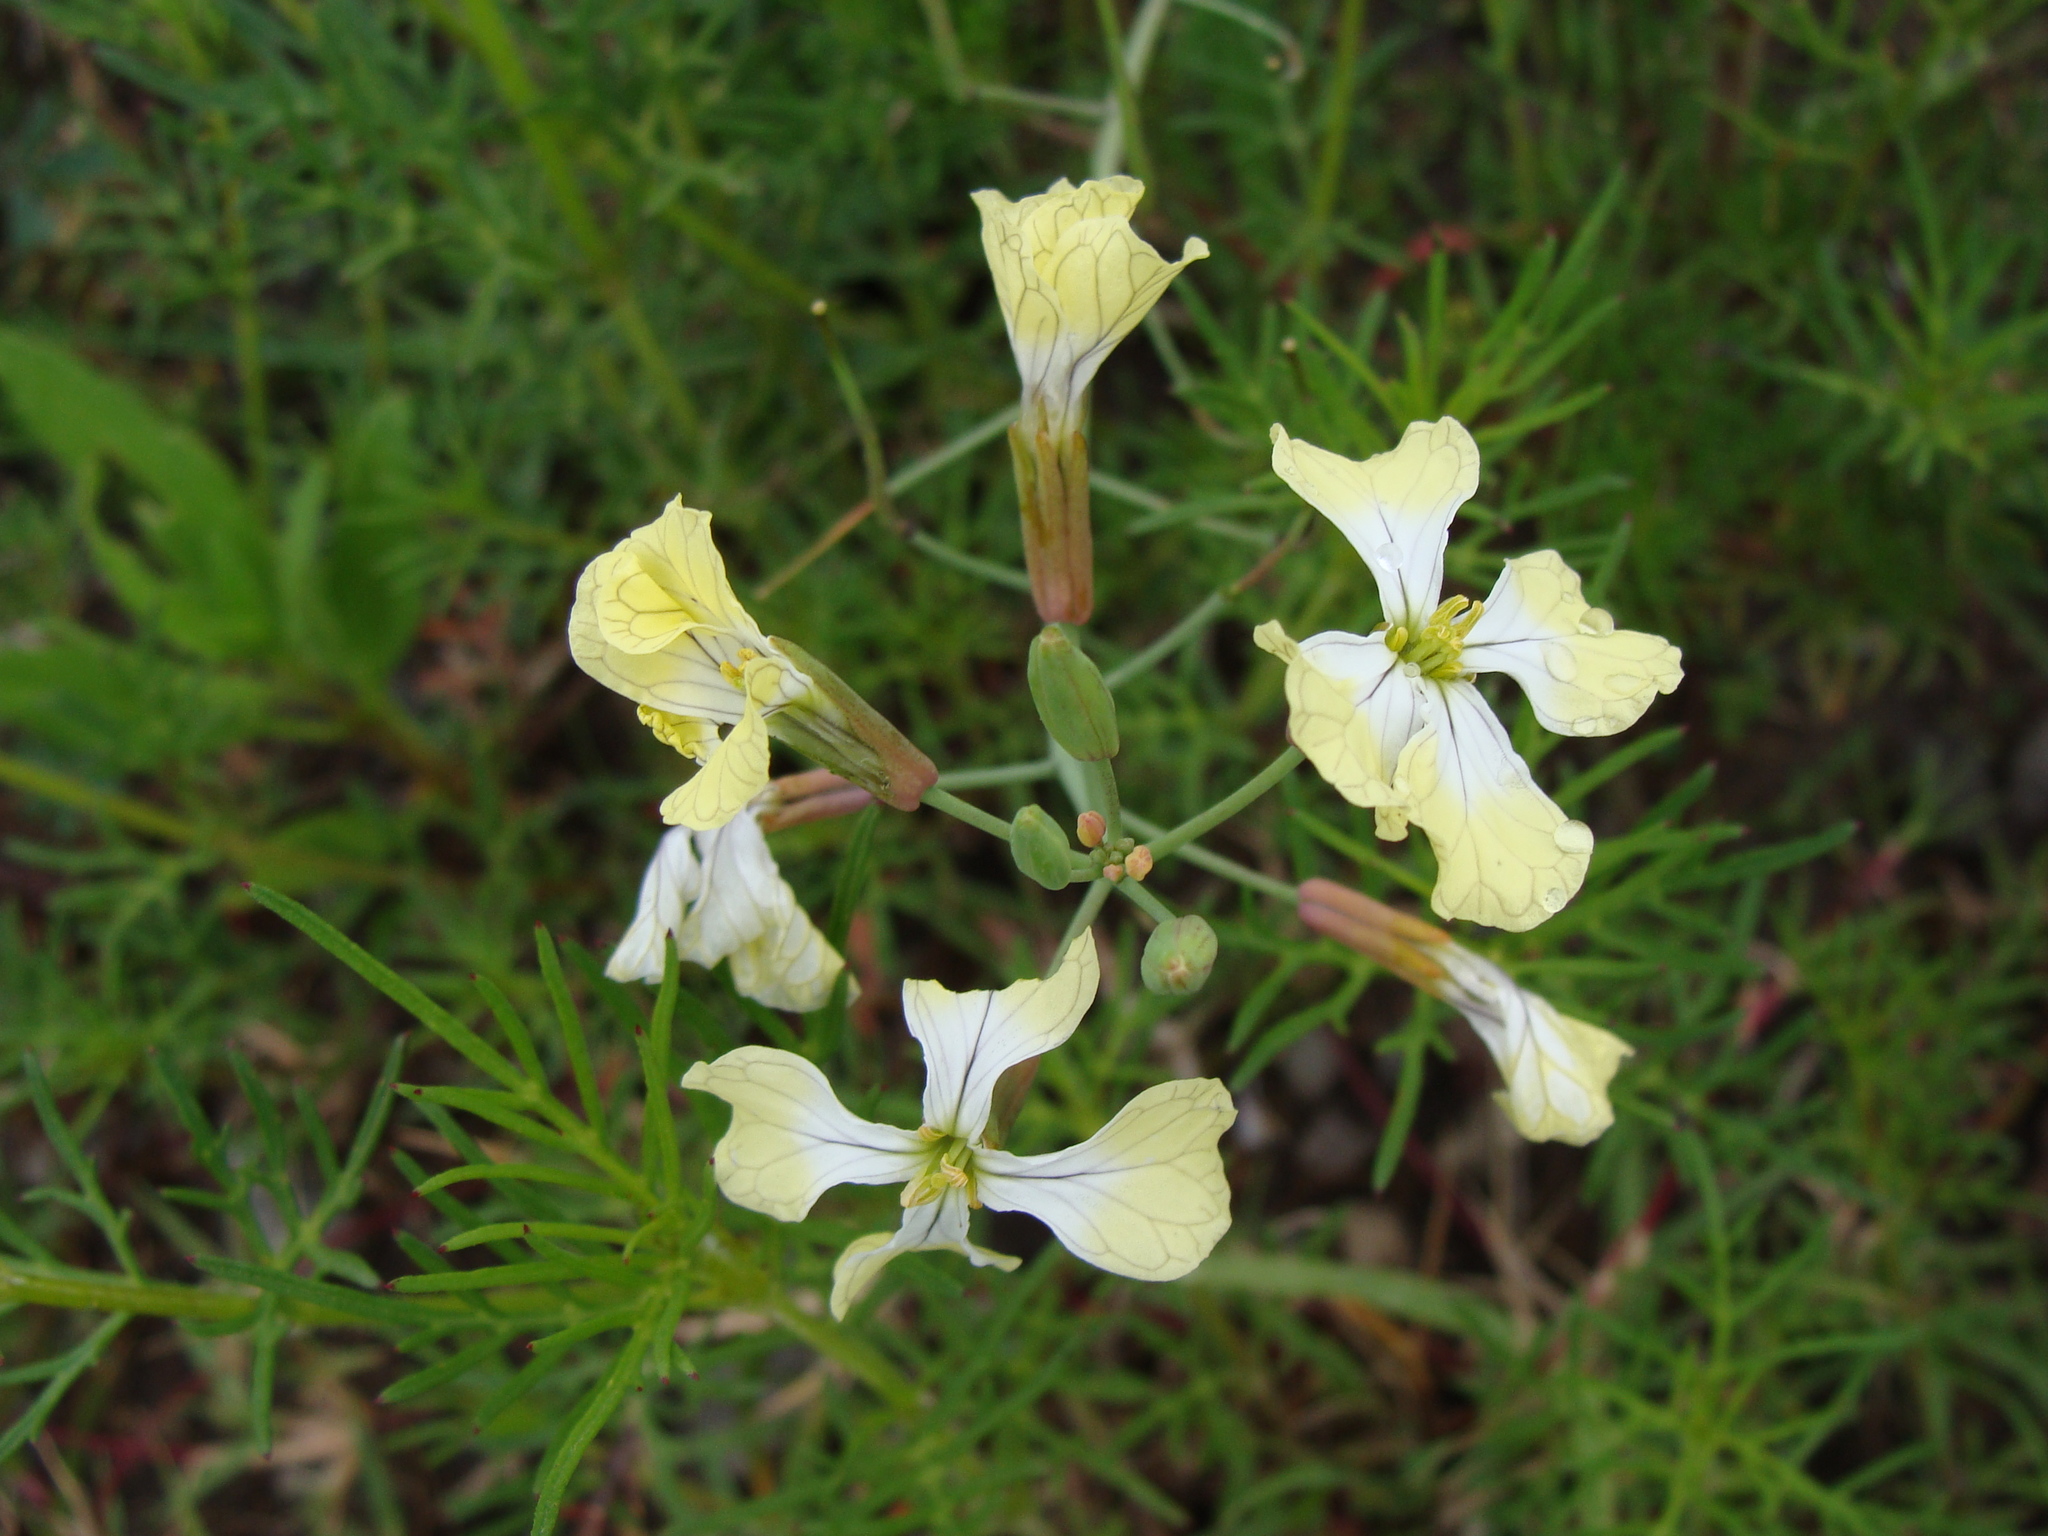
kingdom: Plantae
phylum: Tracheophyta
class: Magnoliopsida
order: Brassicales
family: Brassicaceae
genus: Raphanus
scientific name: Raphanus raphanistrum
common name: Wild radish
